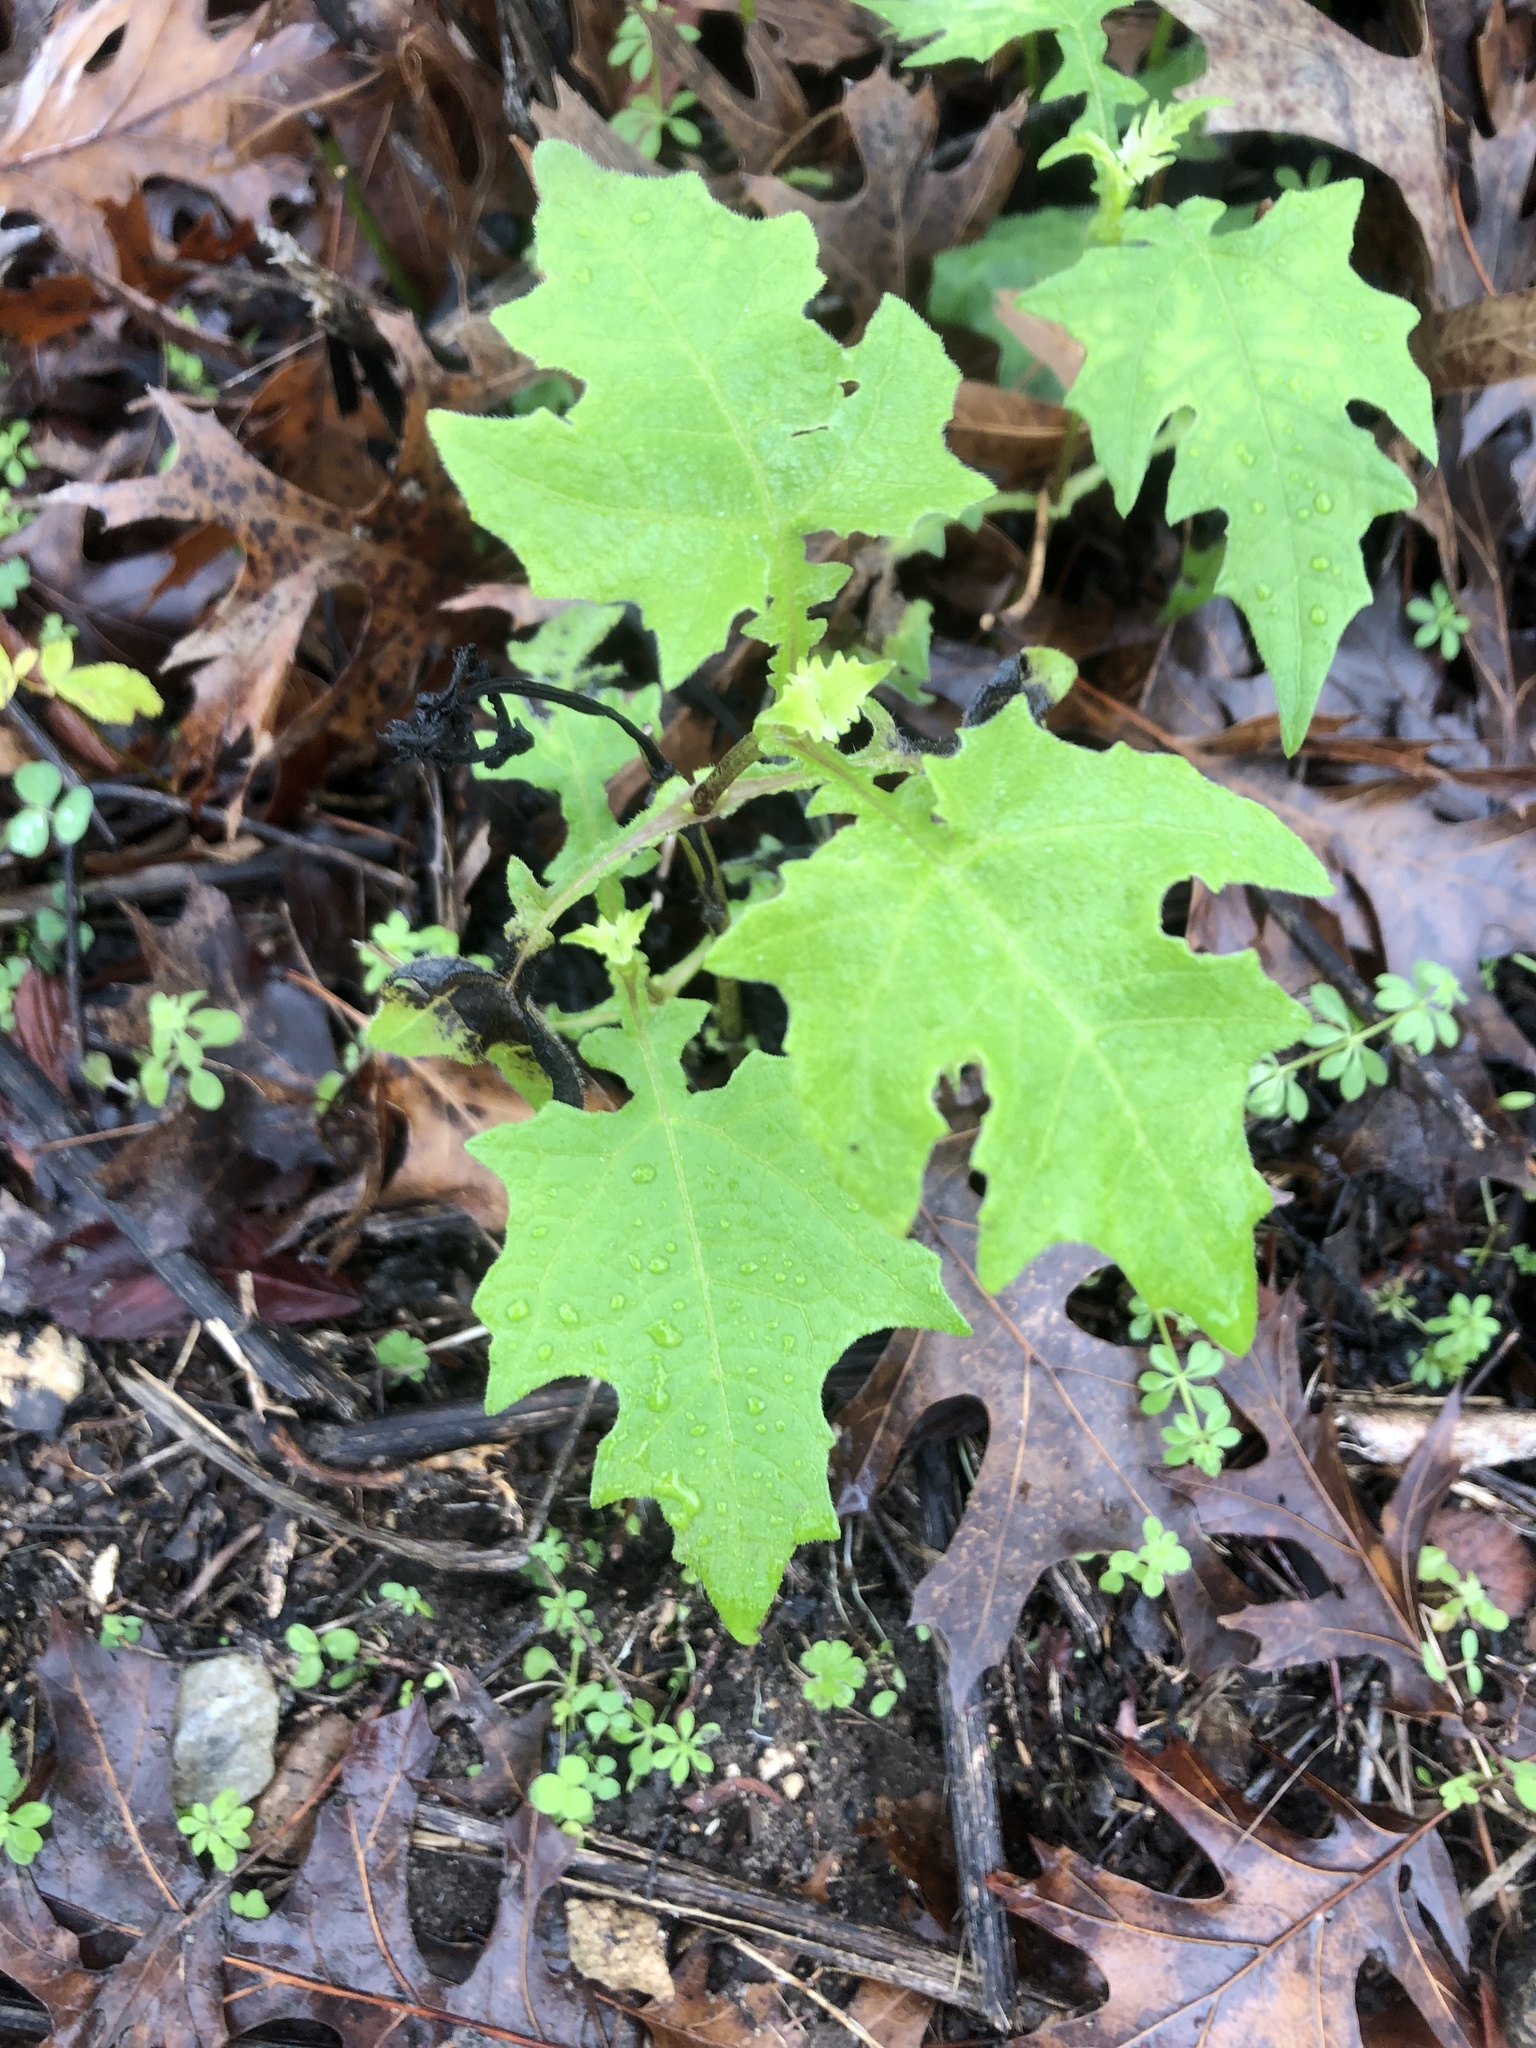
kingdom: Plantae
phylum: Tracheophyta
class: Magnoliopsida
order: Asterales
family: Asteraceae
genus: Smallanthus
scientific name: Smallanthus uvedalia
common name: Bear's-foot
